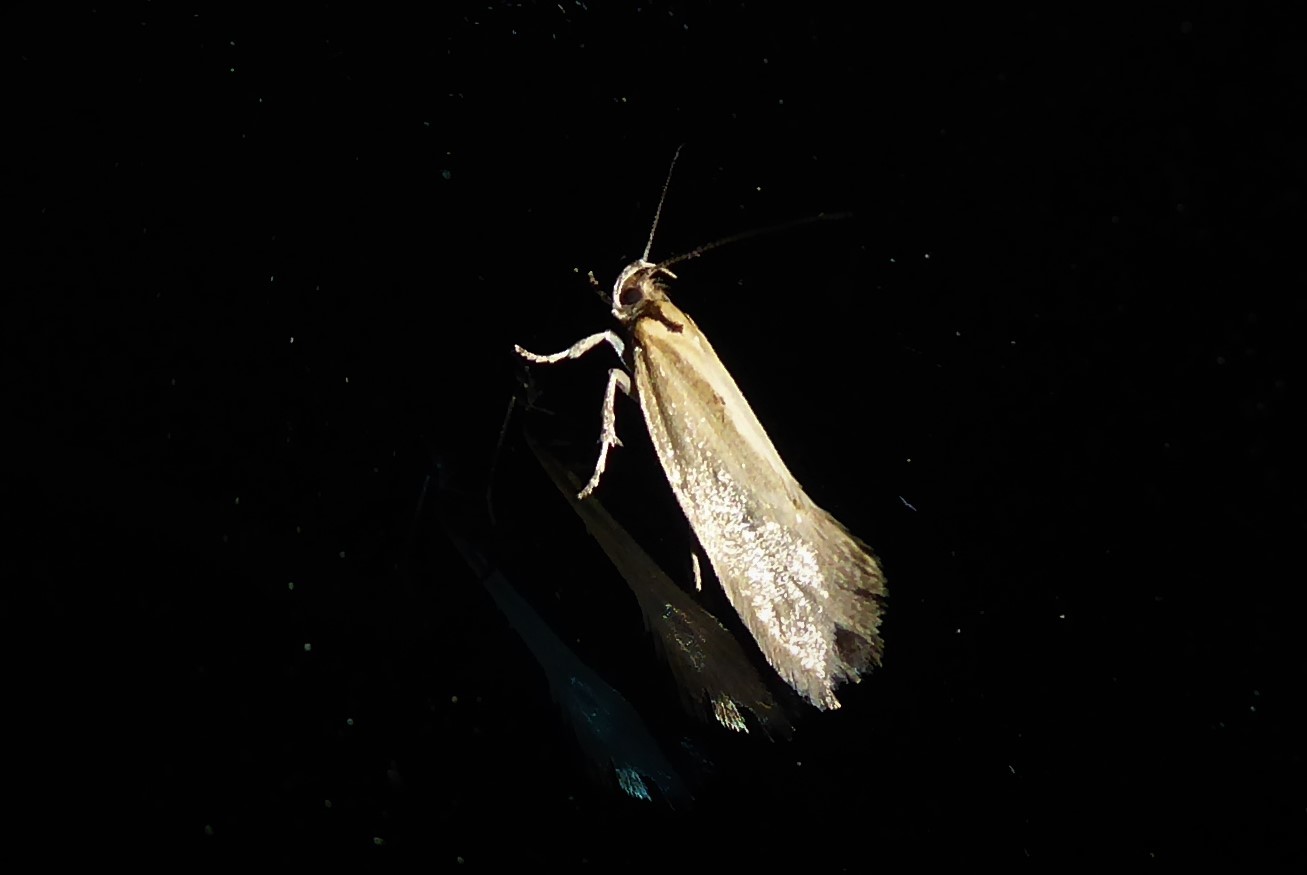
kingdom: Animalia
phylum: Arthropoda
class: Insecta
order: Lepidoptera
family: Oecophoridae
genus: Tingena
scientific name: Tingena chloradelpha
